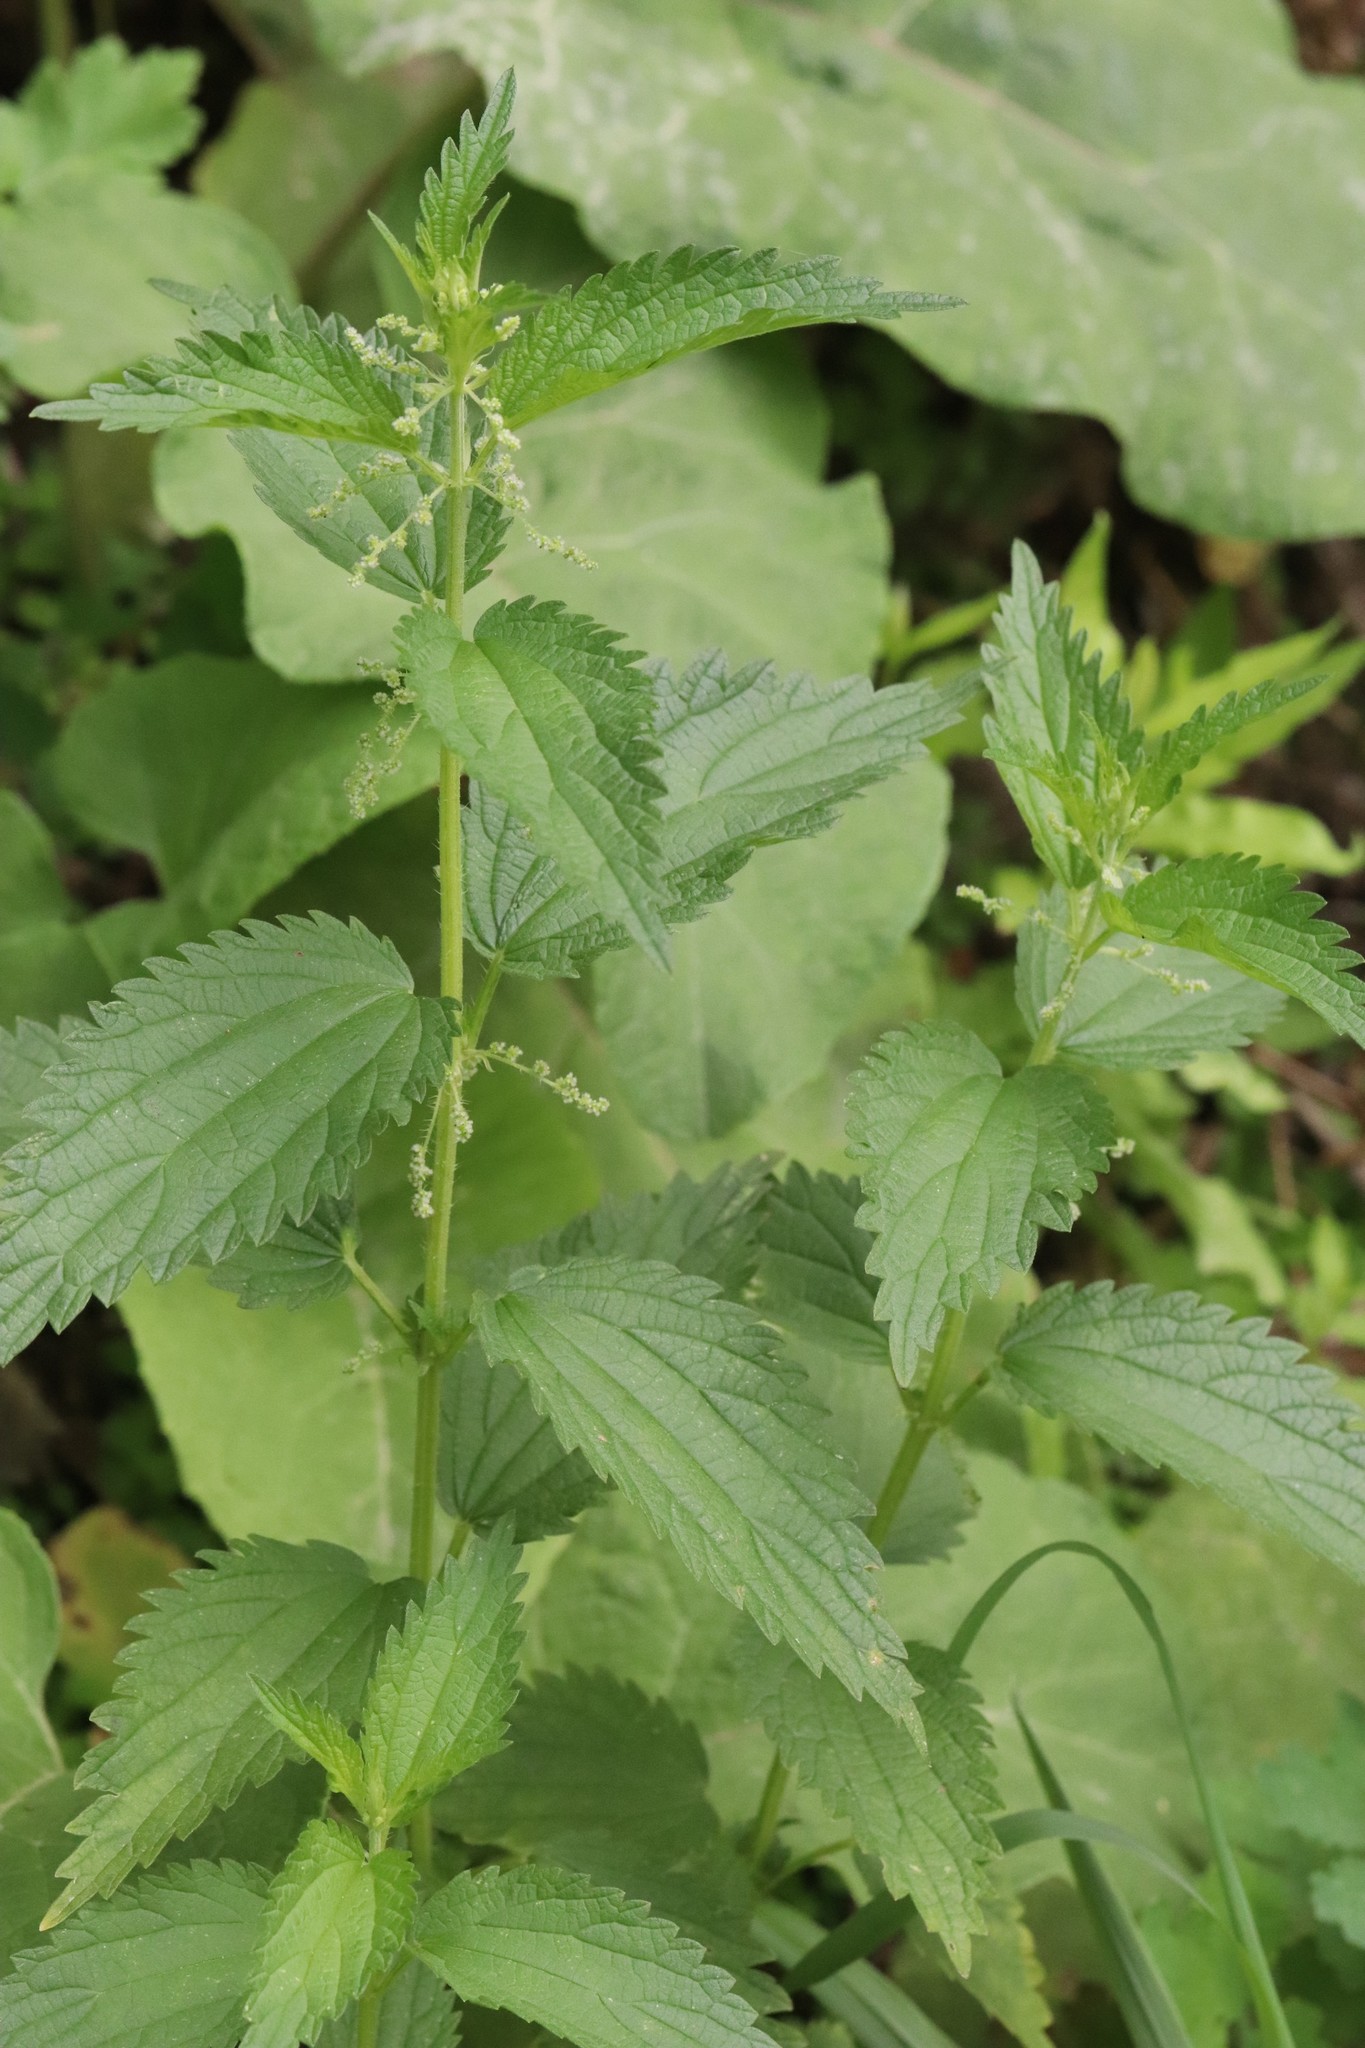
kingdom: Plantae
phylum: Tracheophyta
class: Magnoliopsida
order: Rosales
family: Urticaceae
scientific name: Urticaceae
